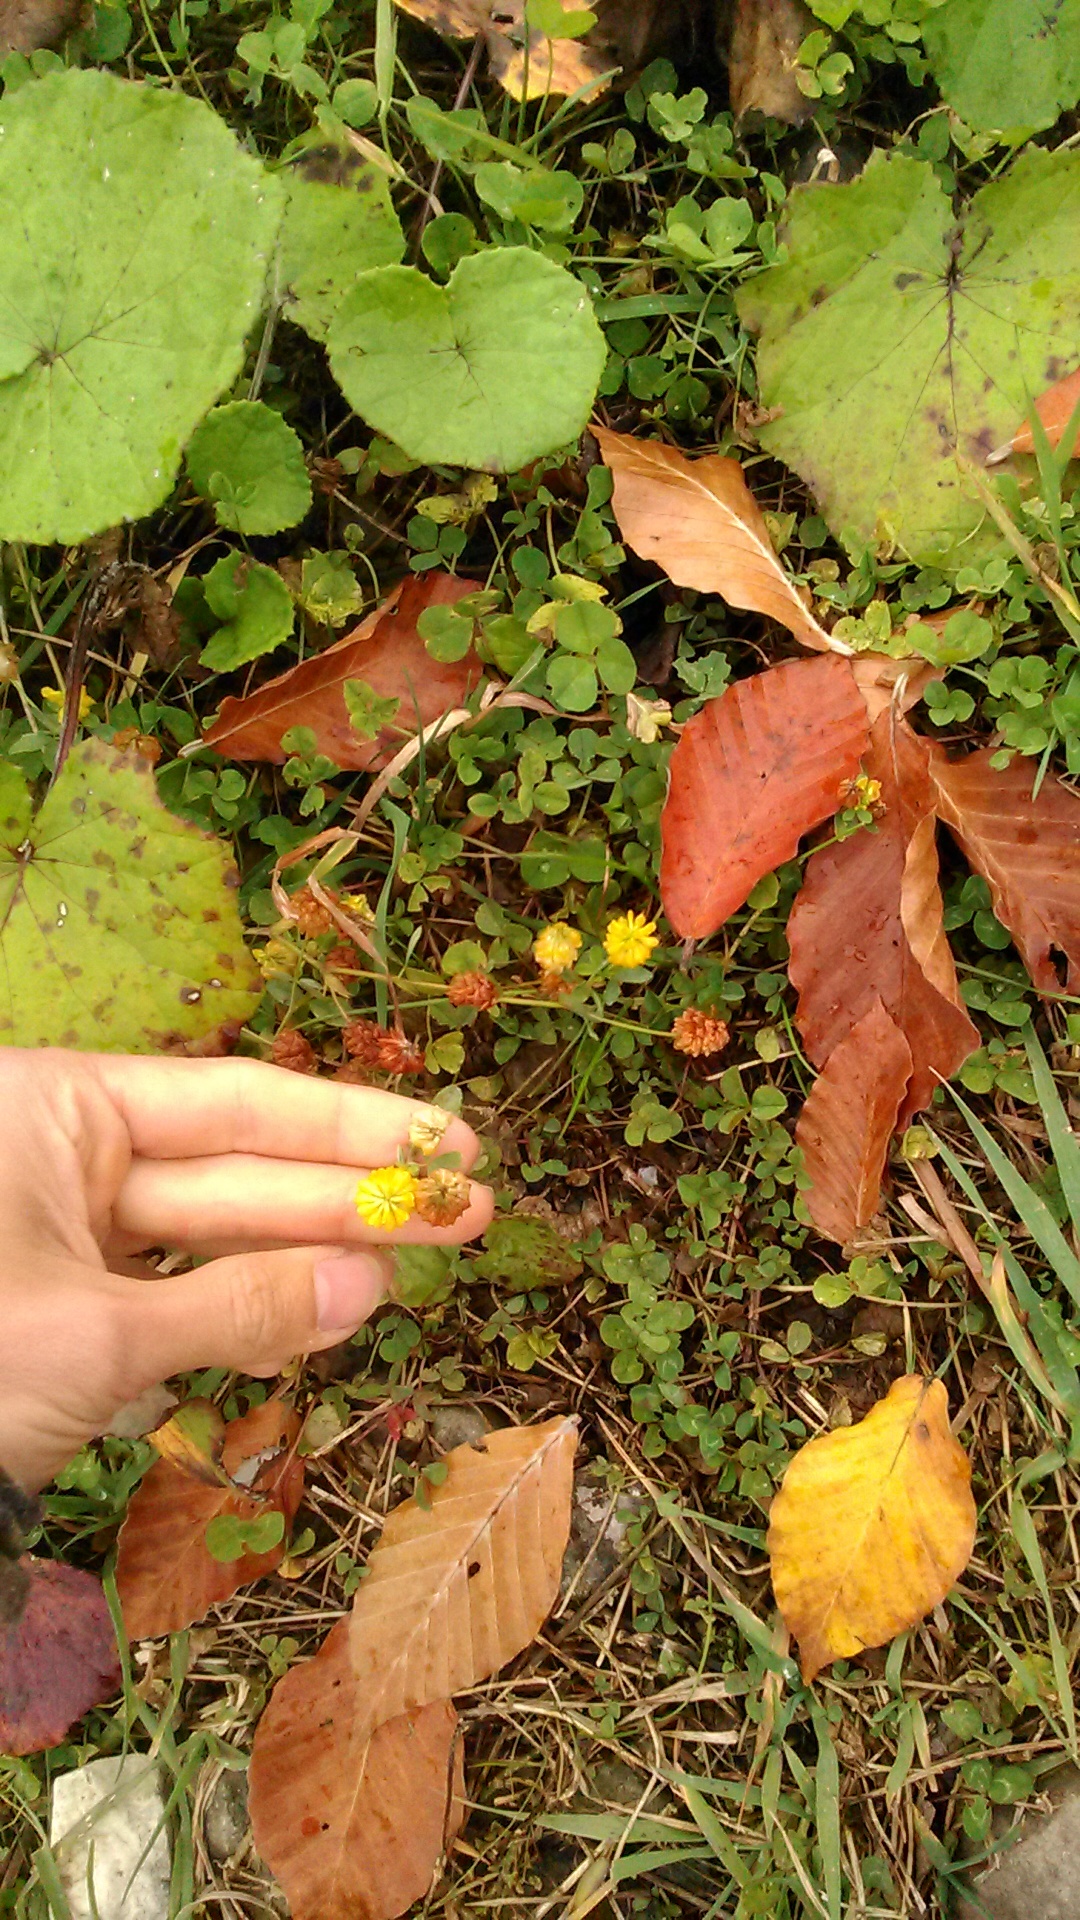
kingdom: Plantae
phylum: Tracheophyta
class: Magnoliopsida
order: Fabales
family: Fabaceae
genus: Trifolium
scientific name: Trifolium aureum
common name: Golden clover
